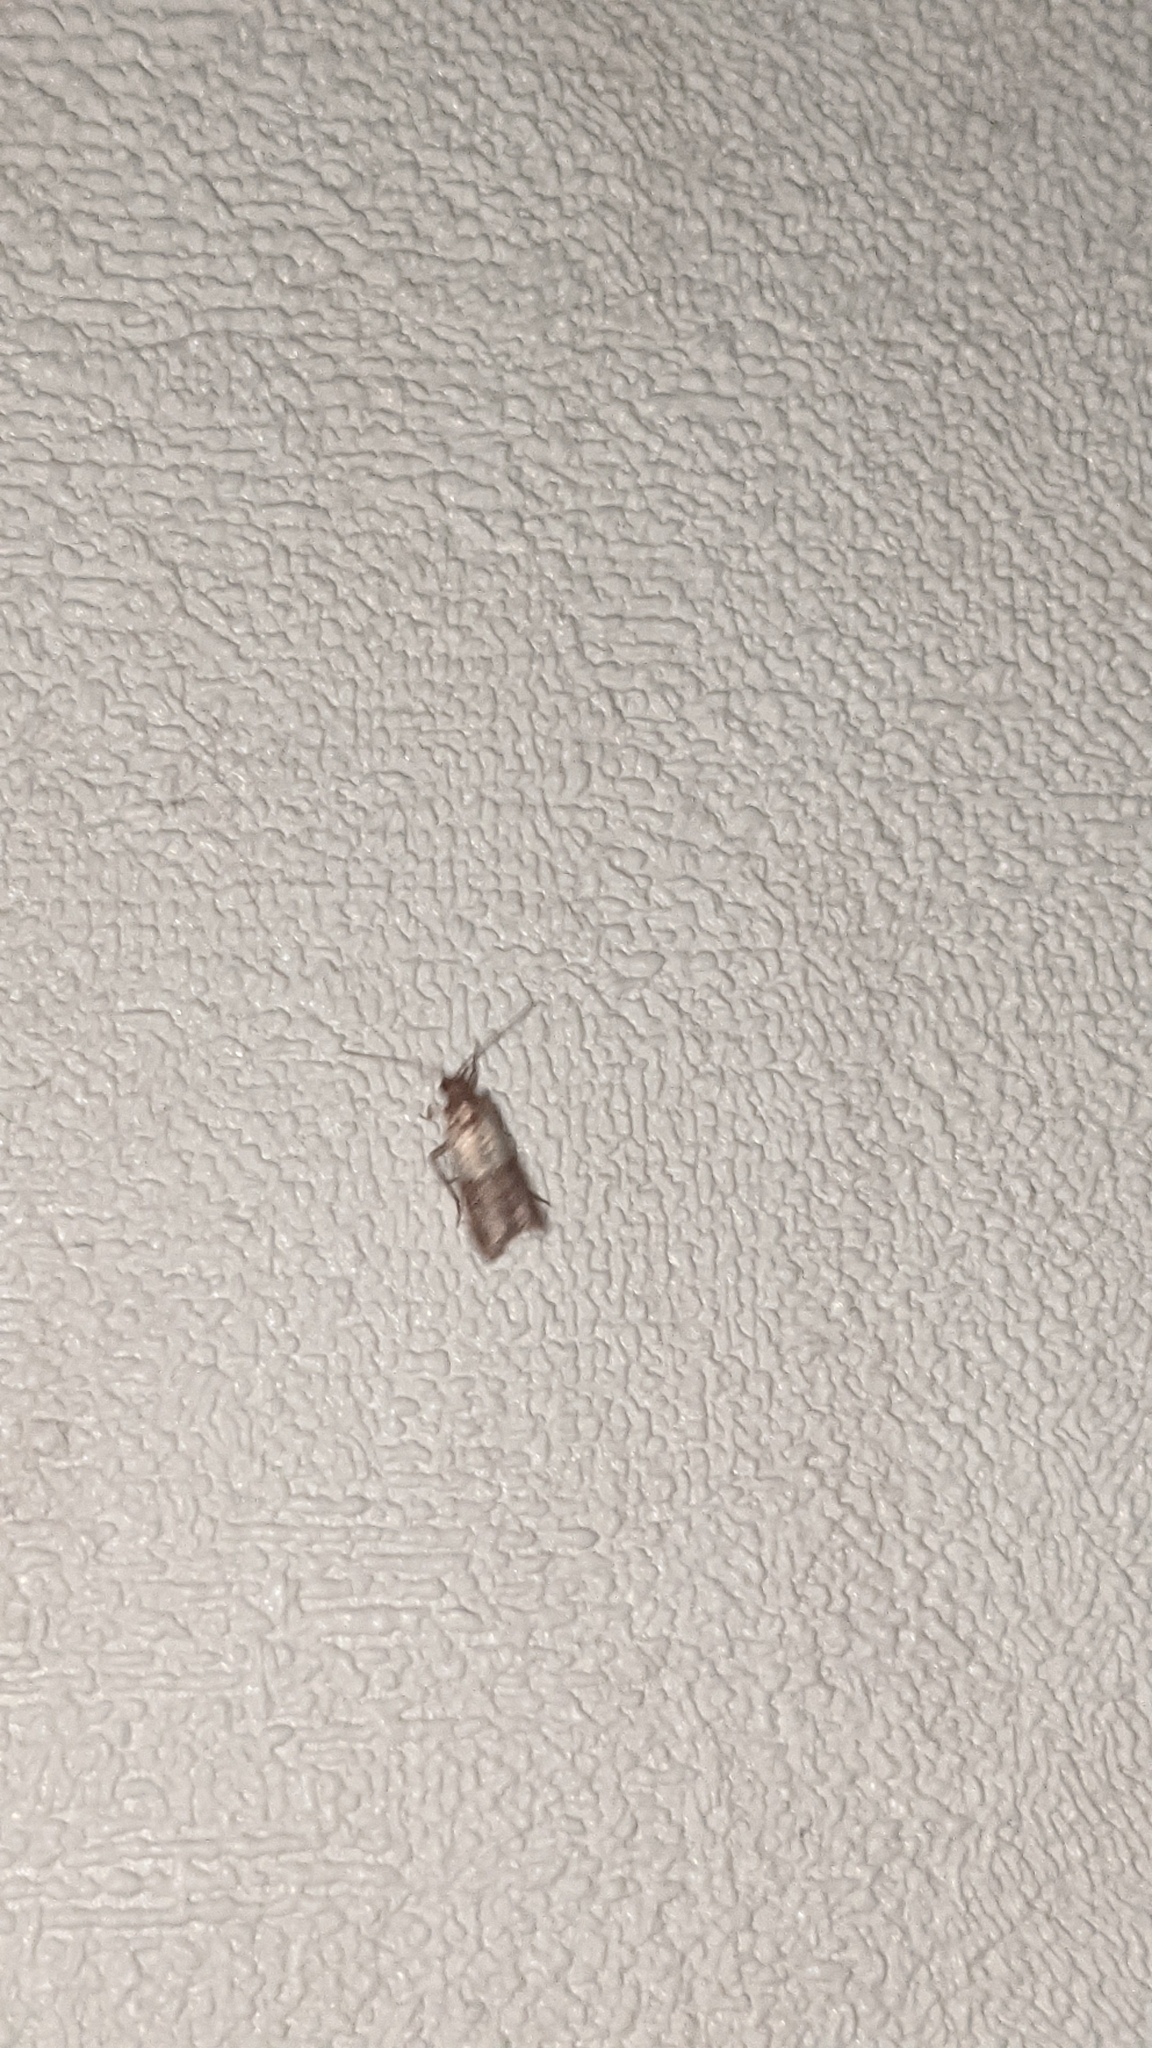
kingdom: Animalia
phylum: Arthropoda
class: Insecta
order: Lepidoptera
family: Pyralidae
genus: Plodia
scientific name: Plodia interpunctella
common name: Indian meal moth
